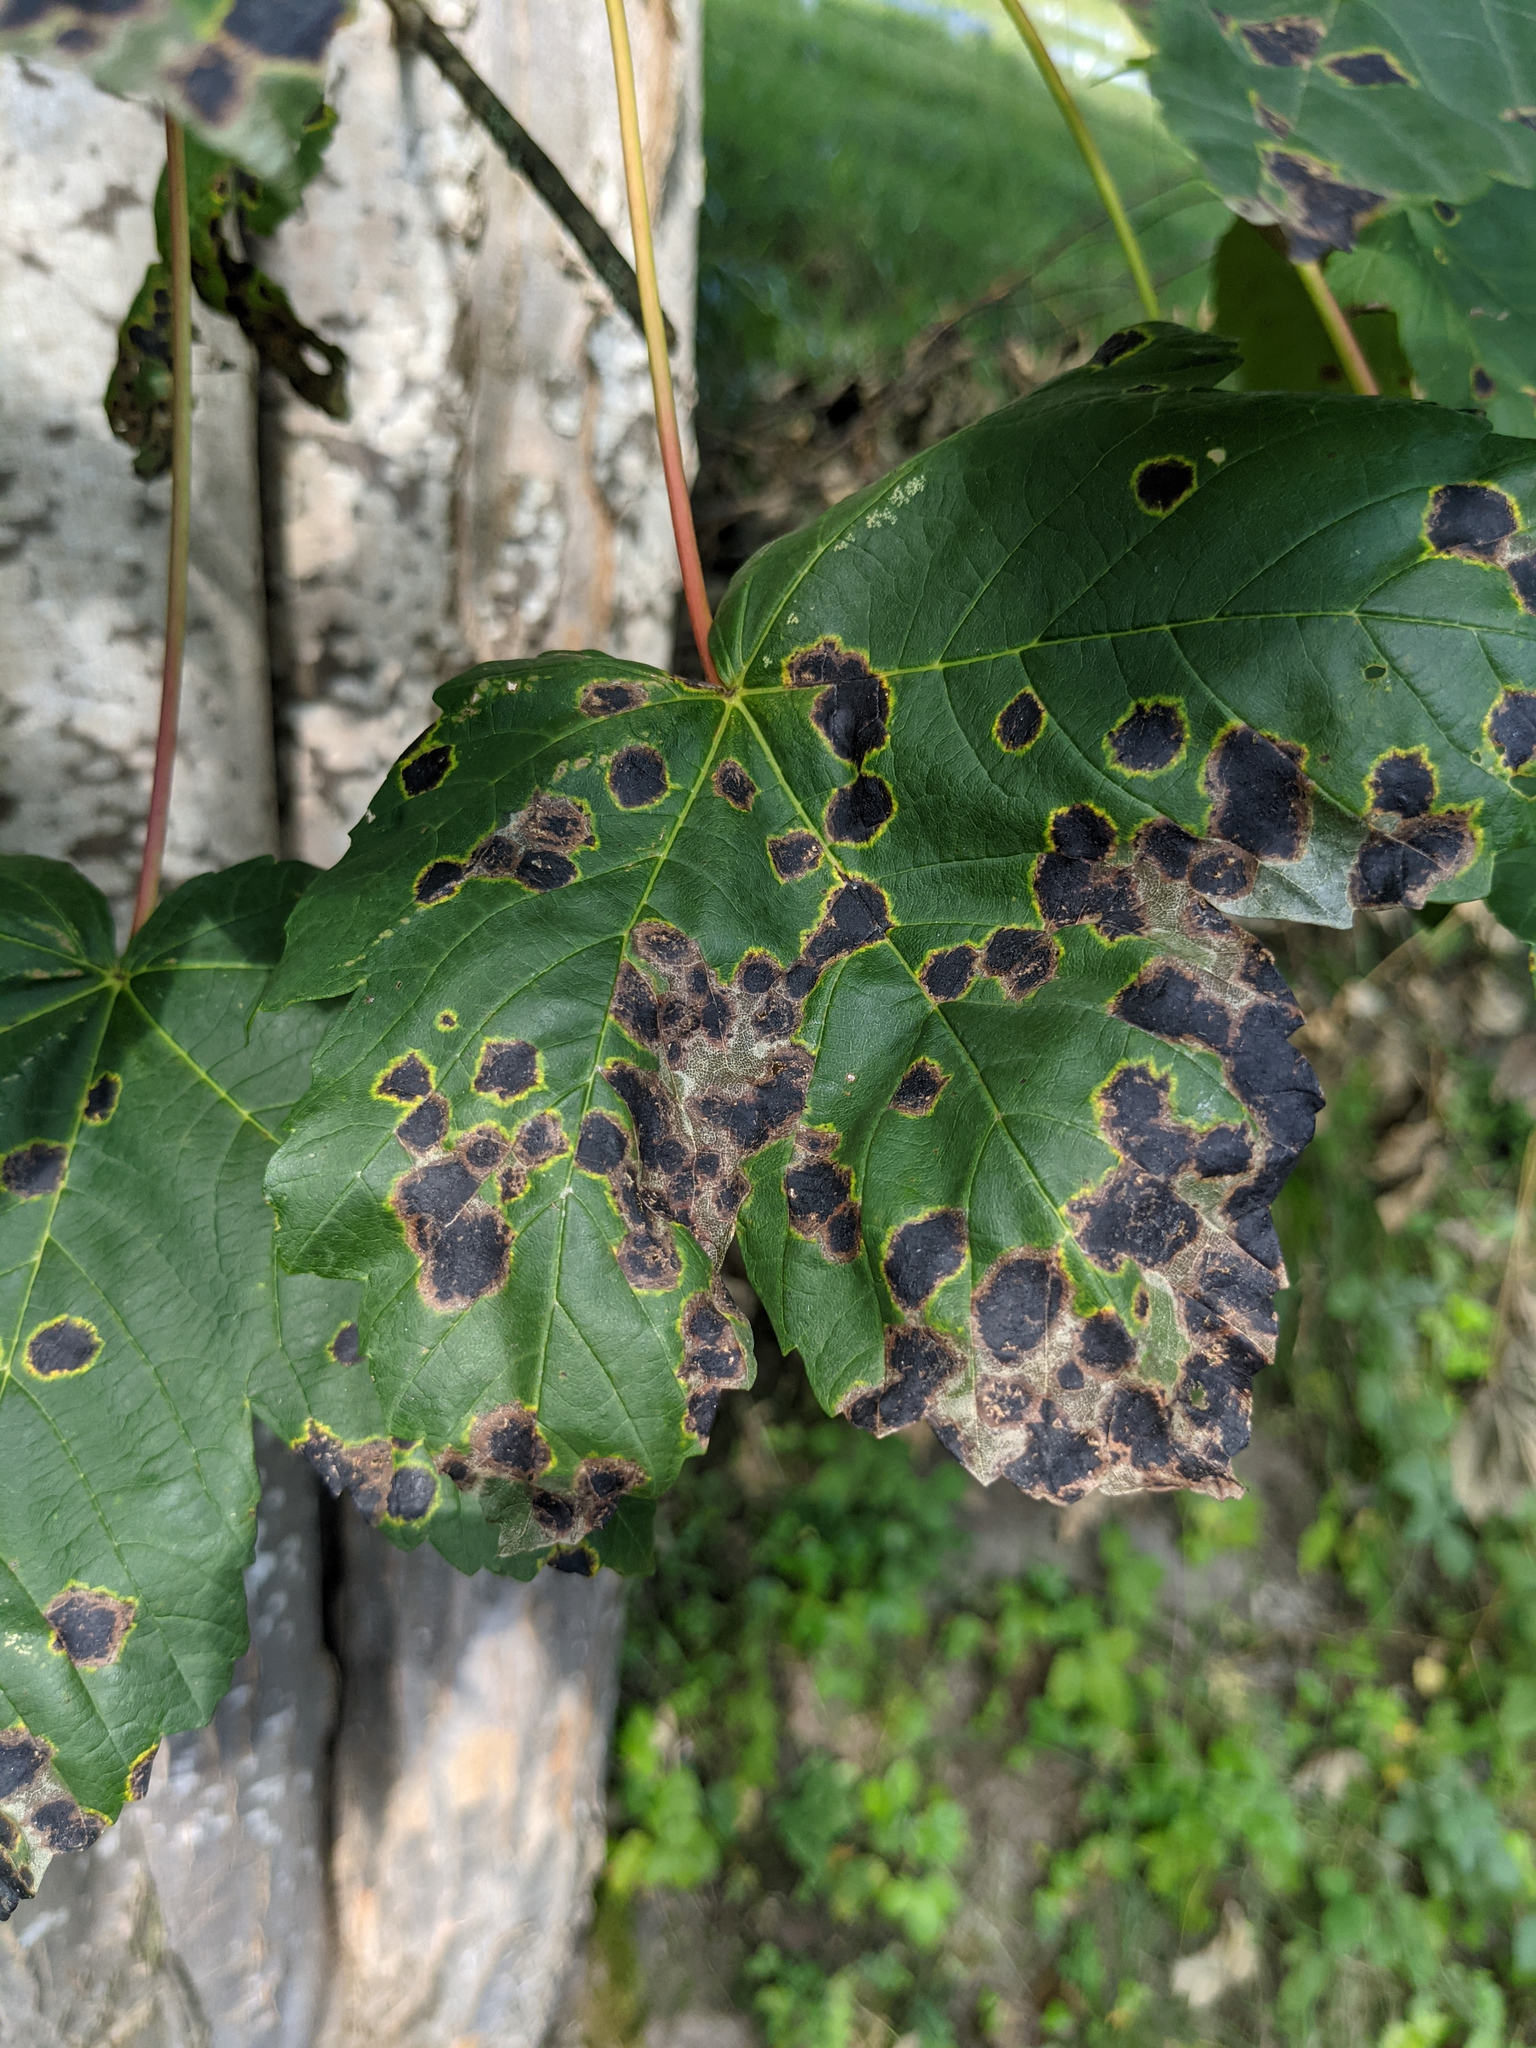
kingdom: Fungi
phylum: Ascomycota
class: Leotiomycetes
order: Rhytismatales
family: Rhytismataceae
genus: Rhytisma
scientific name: Rhytisma acerinum
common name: European tar spot
